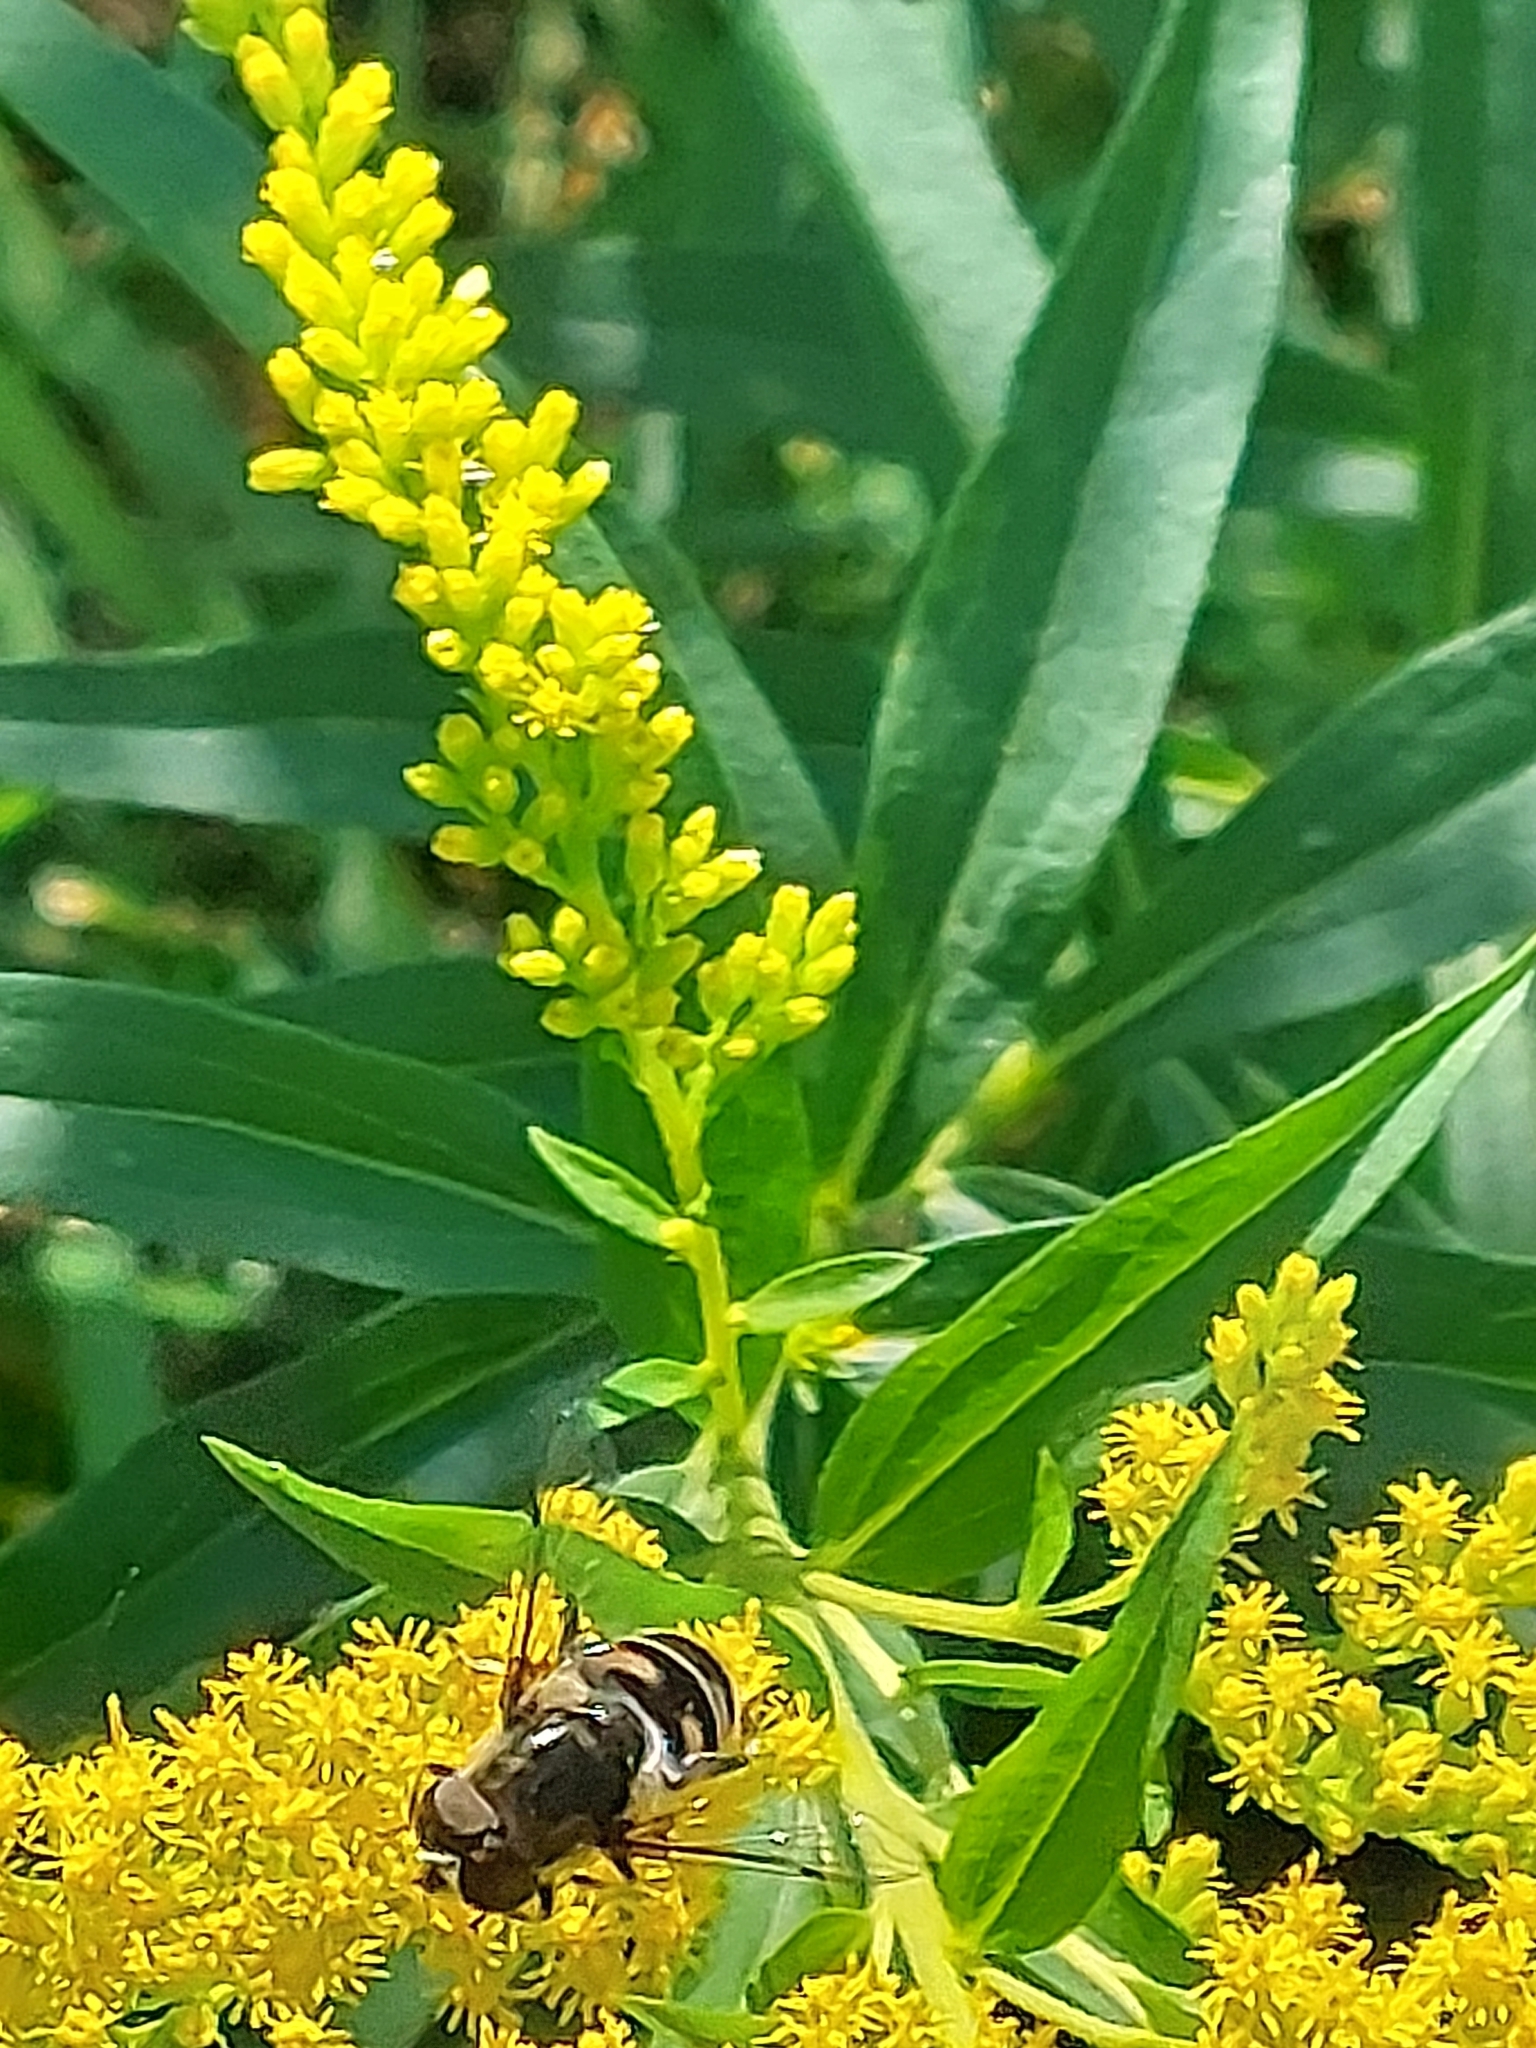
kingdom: Animalia
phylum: Arthropoda
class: Insecta
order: Diptera
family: Syrphidae
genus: Eristalis
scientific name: Eristalis dimidiata
